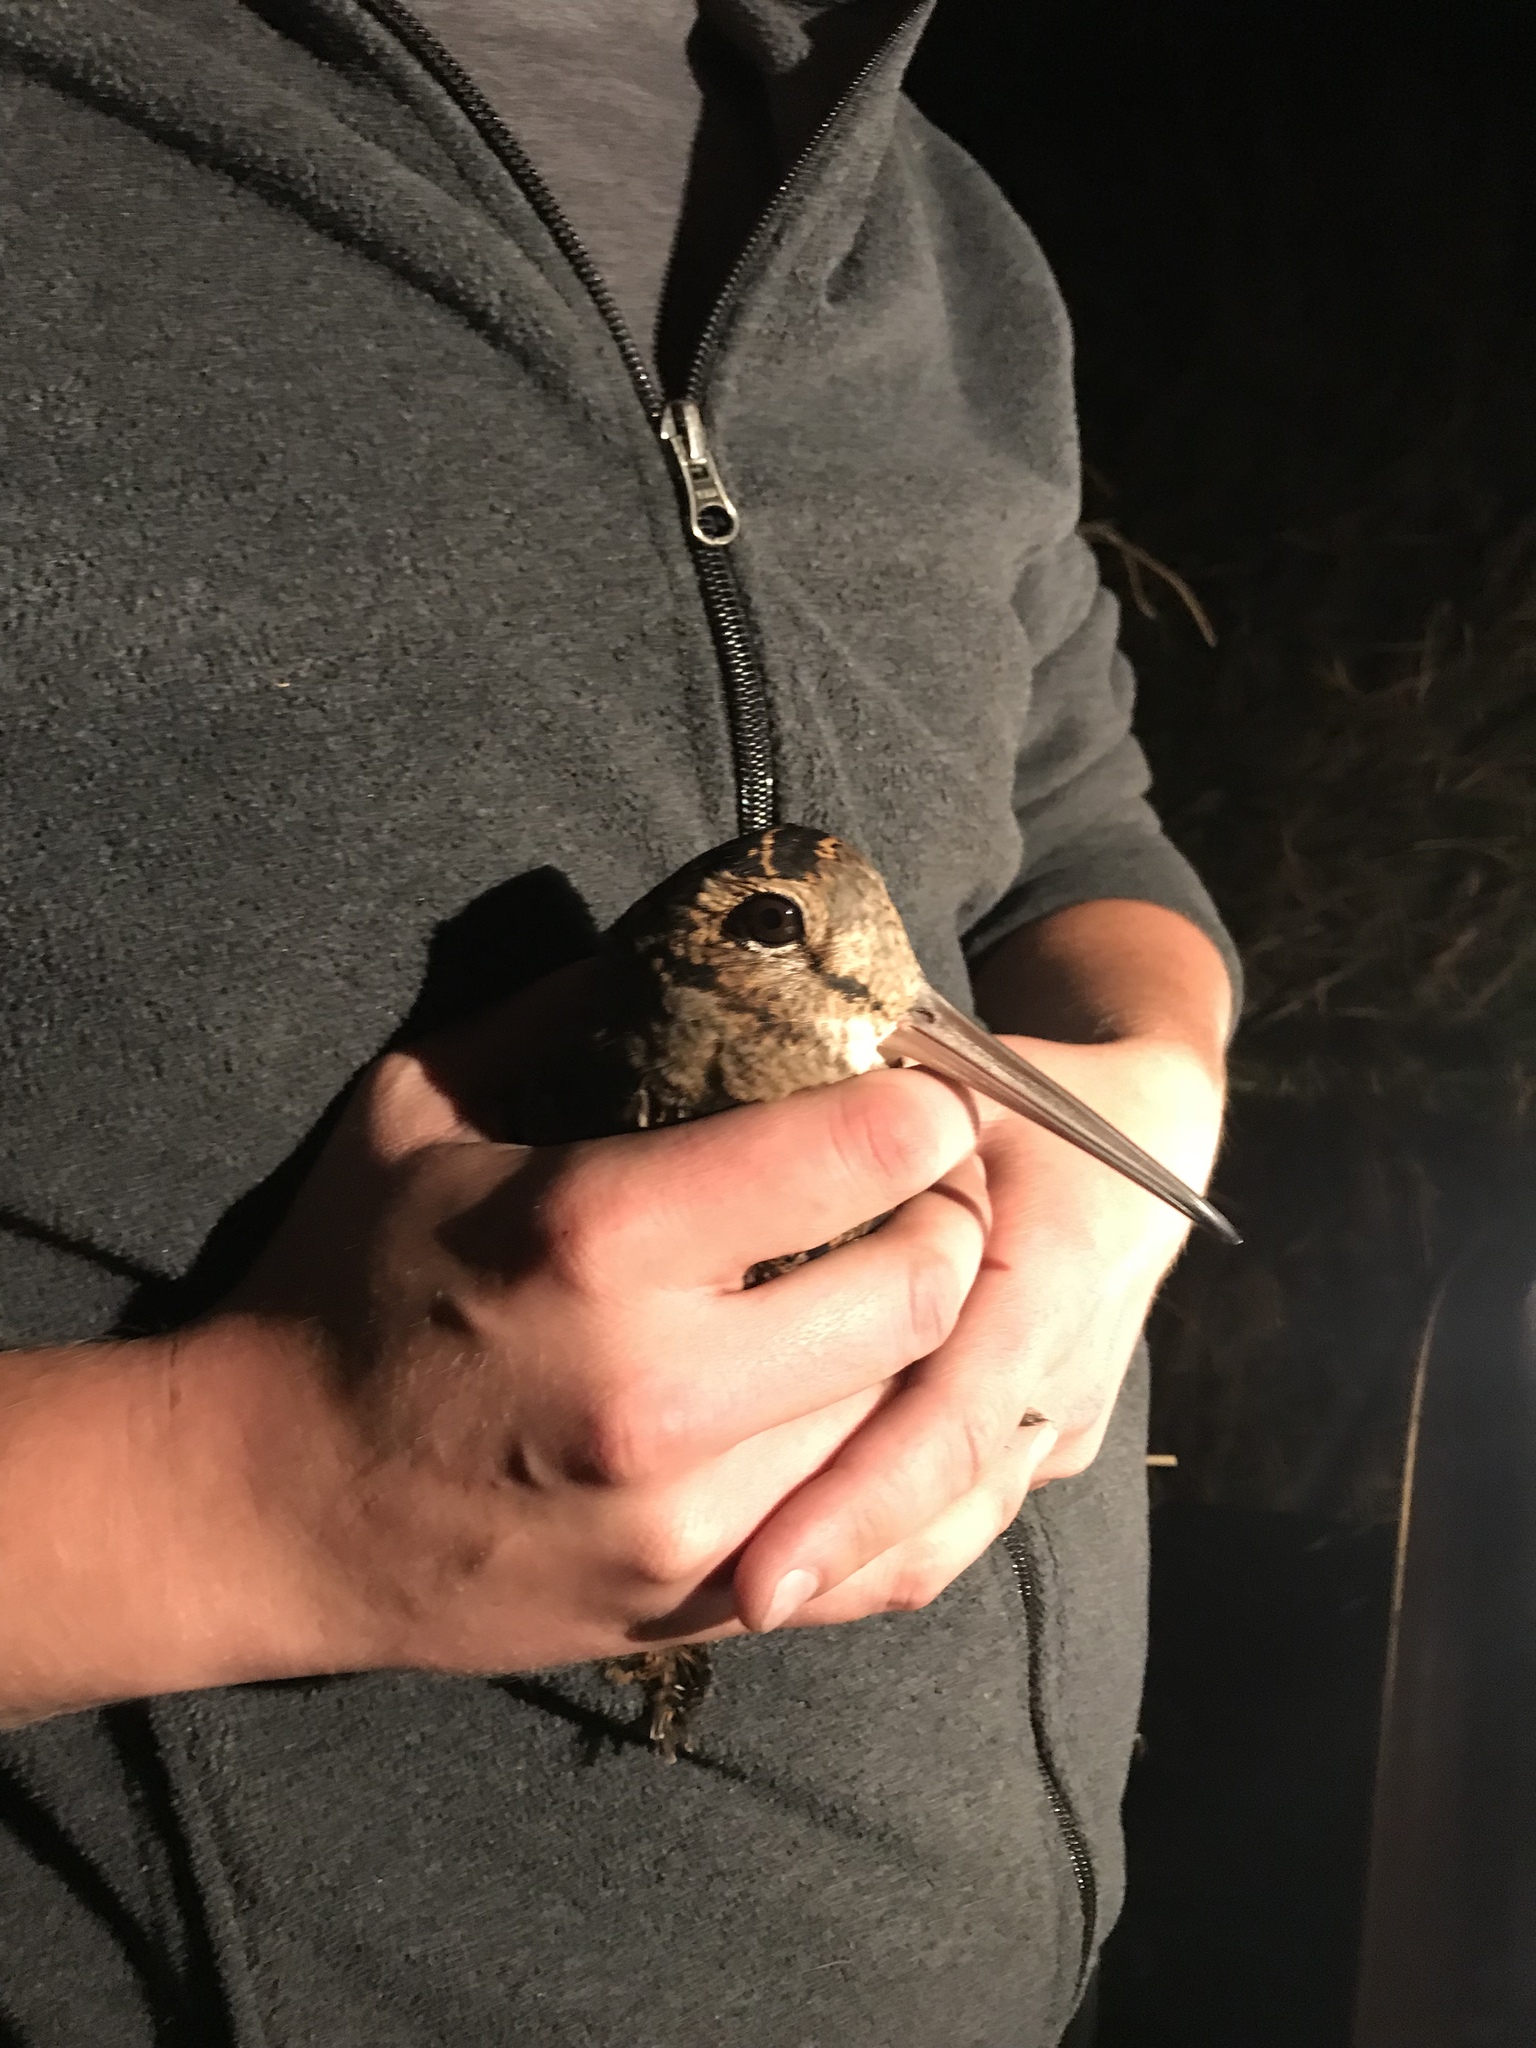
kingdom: Animalia
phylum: Chordata
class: Aves
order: Charadriiformes
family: Scolopacidae
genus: Scolopax
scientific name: Scolopax minor
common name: American woodcock
